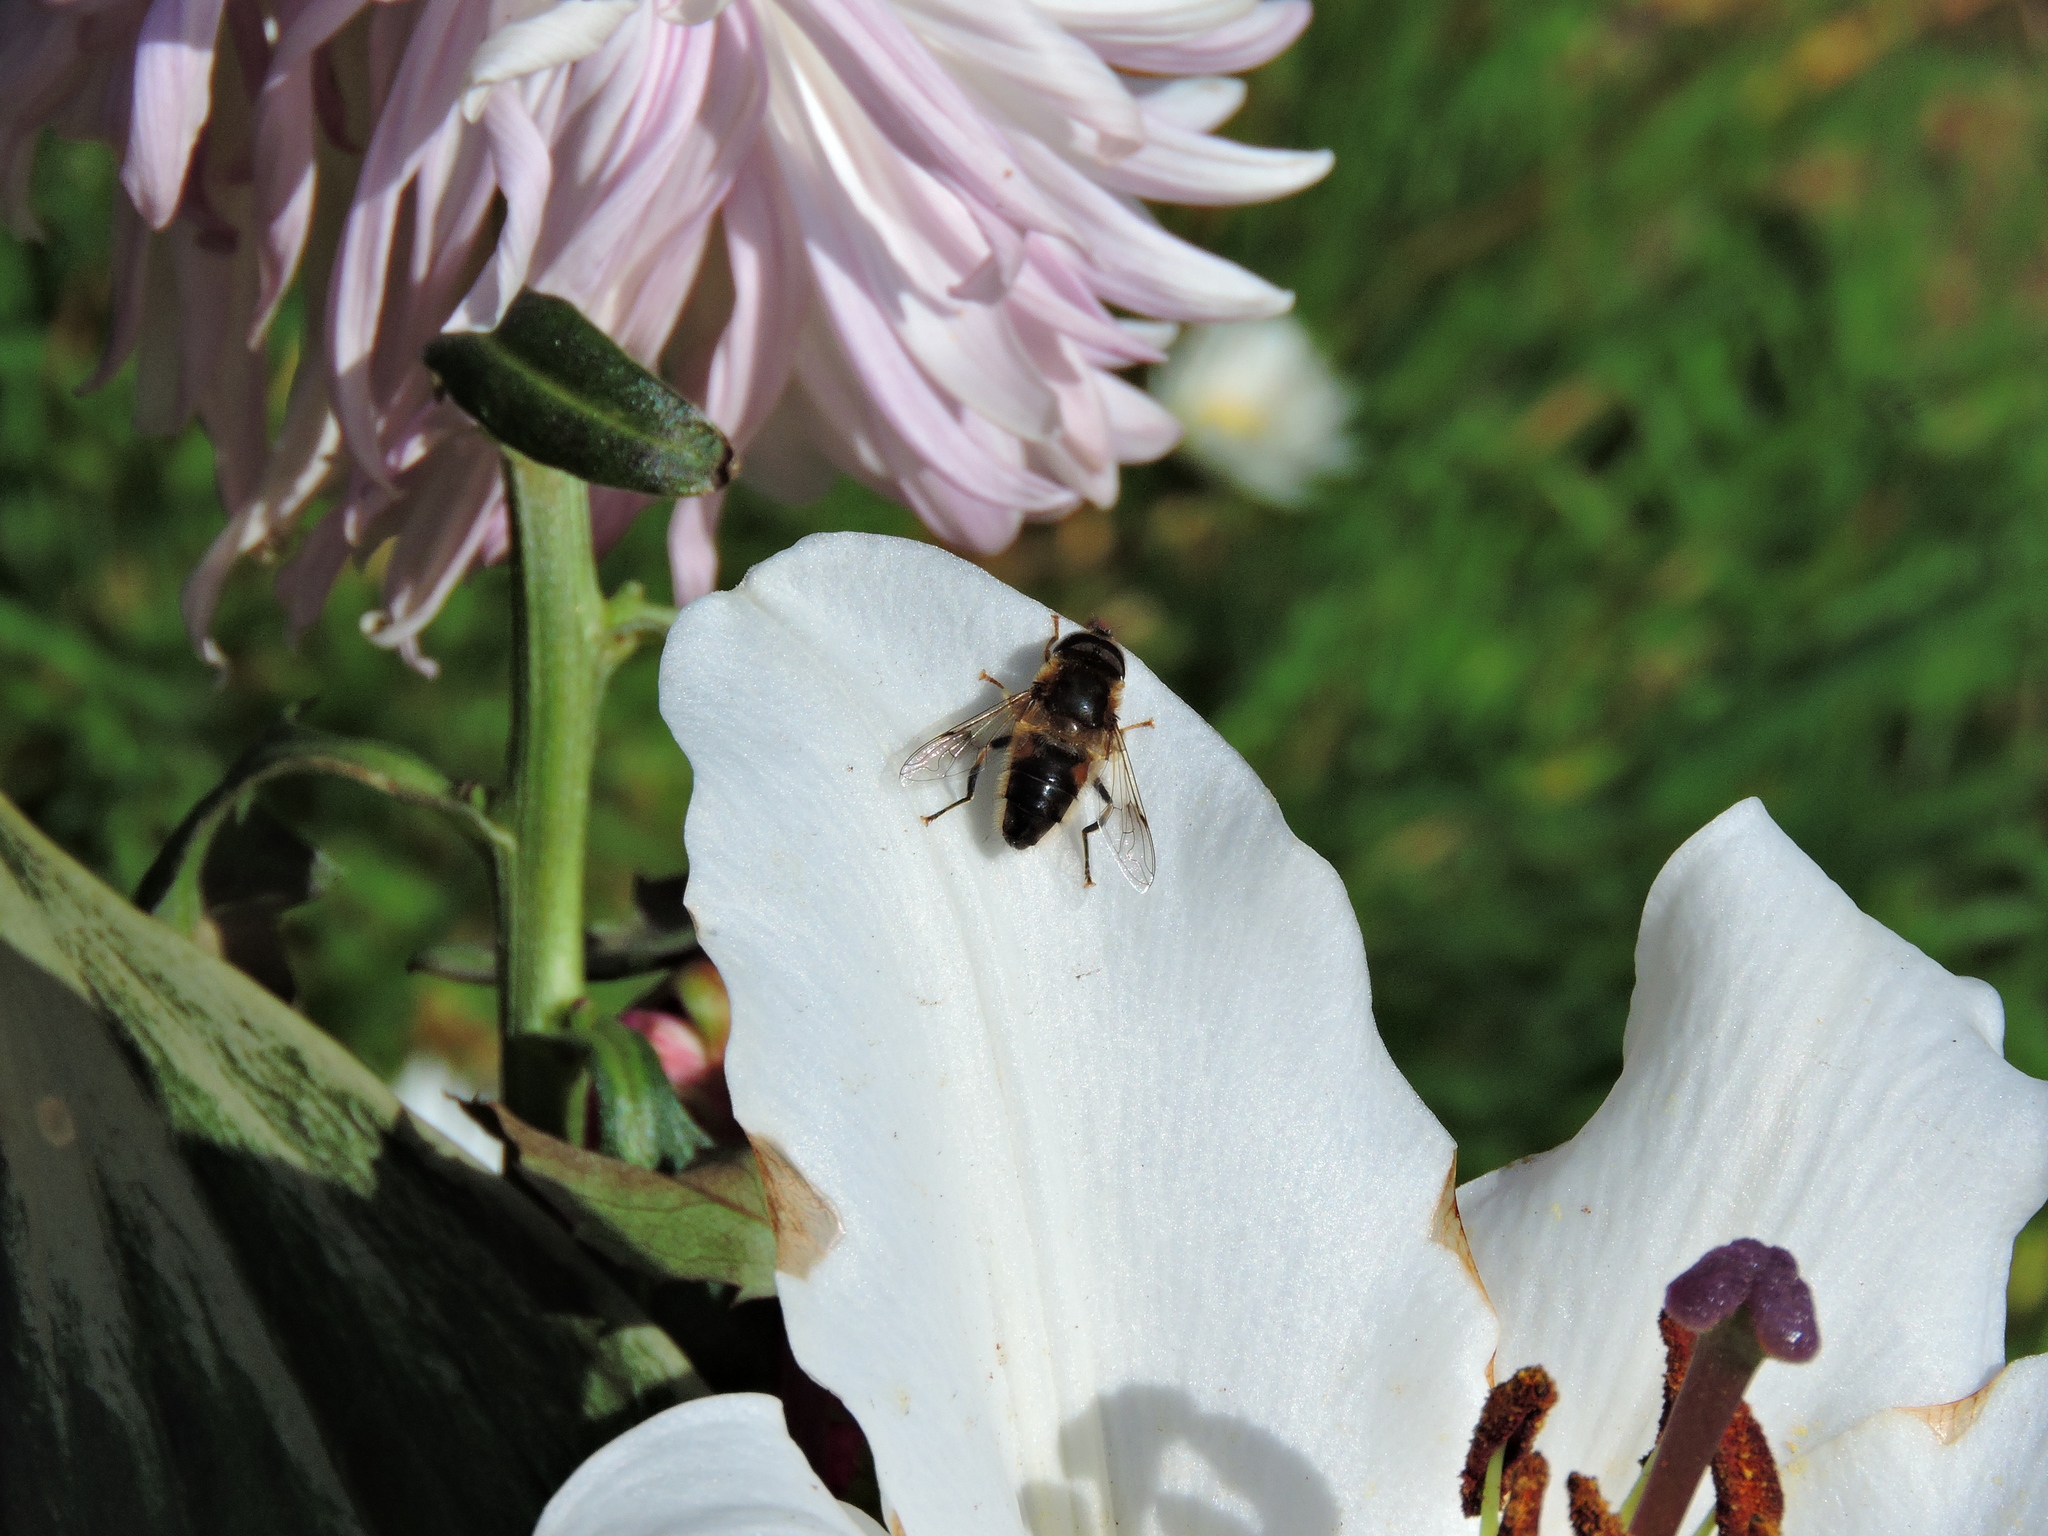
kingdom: Animalia
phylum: Arthropoda
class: Insecta
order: Diptera
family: Syrphidae
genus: Eristalis
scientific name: Eristalis pertinax
